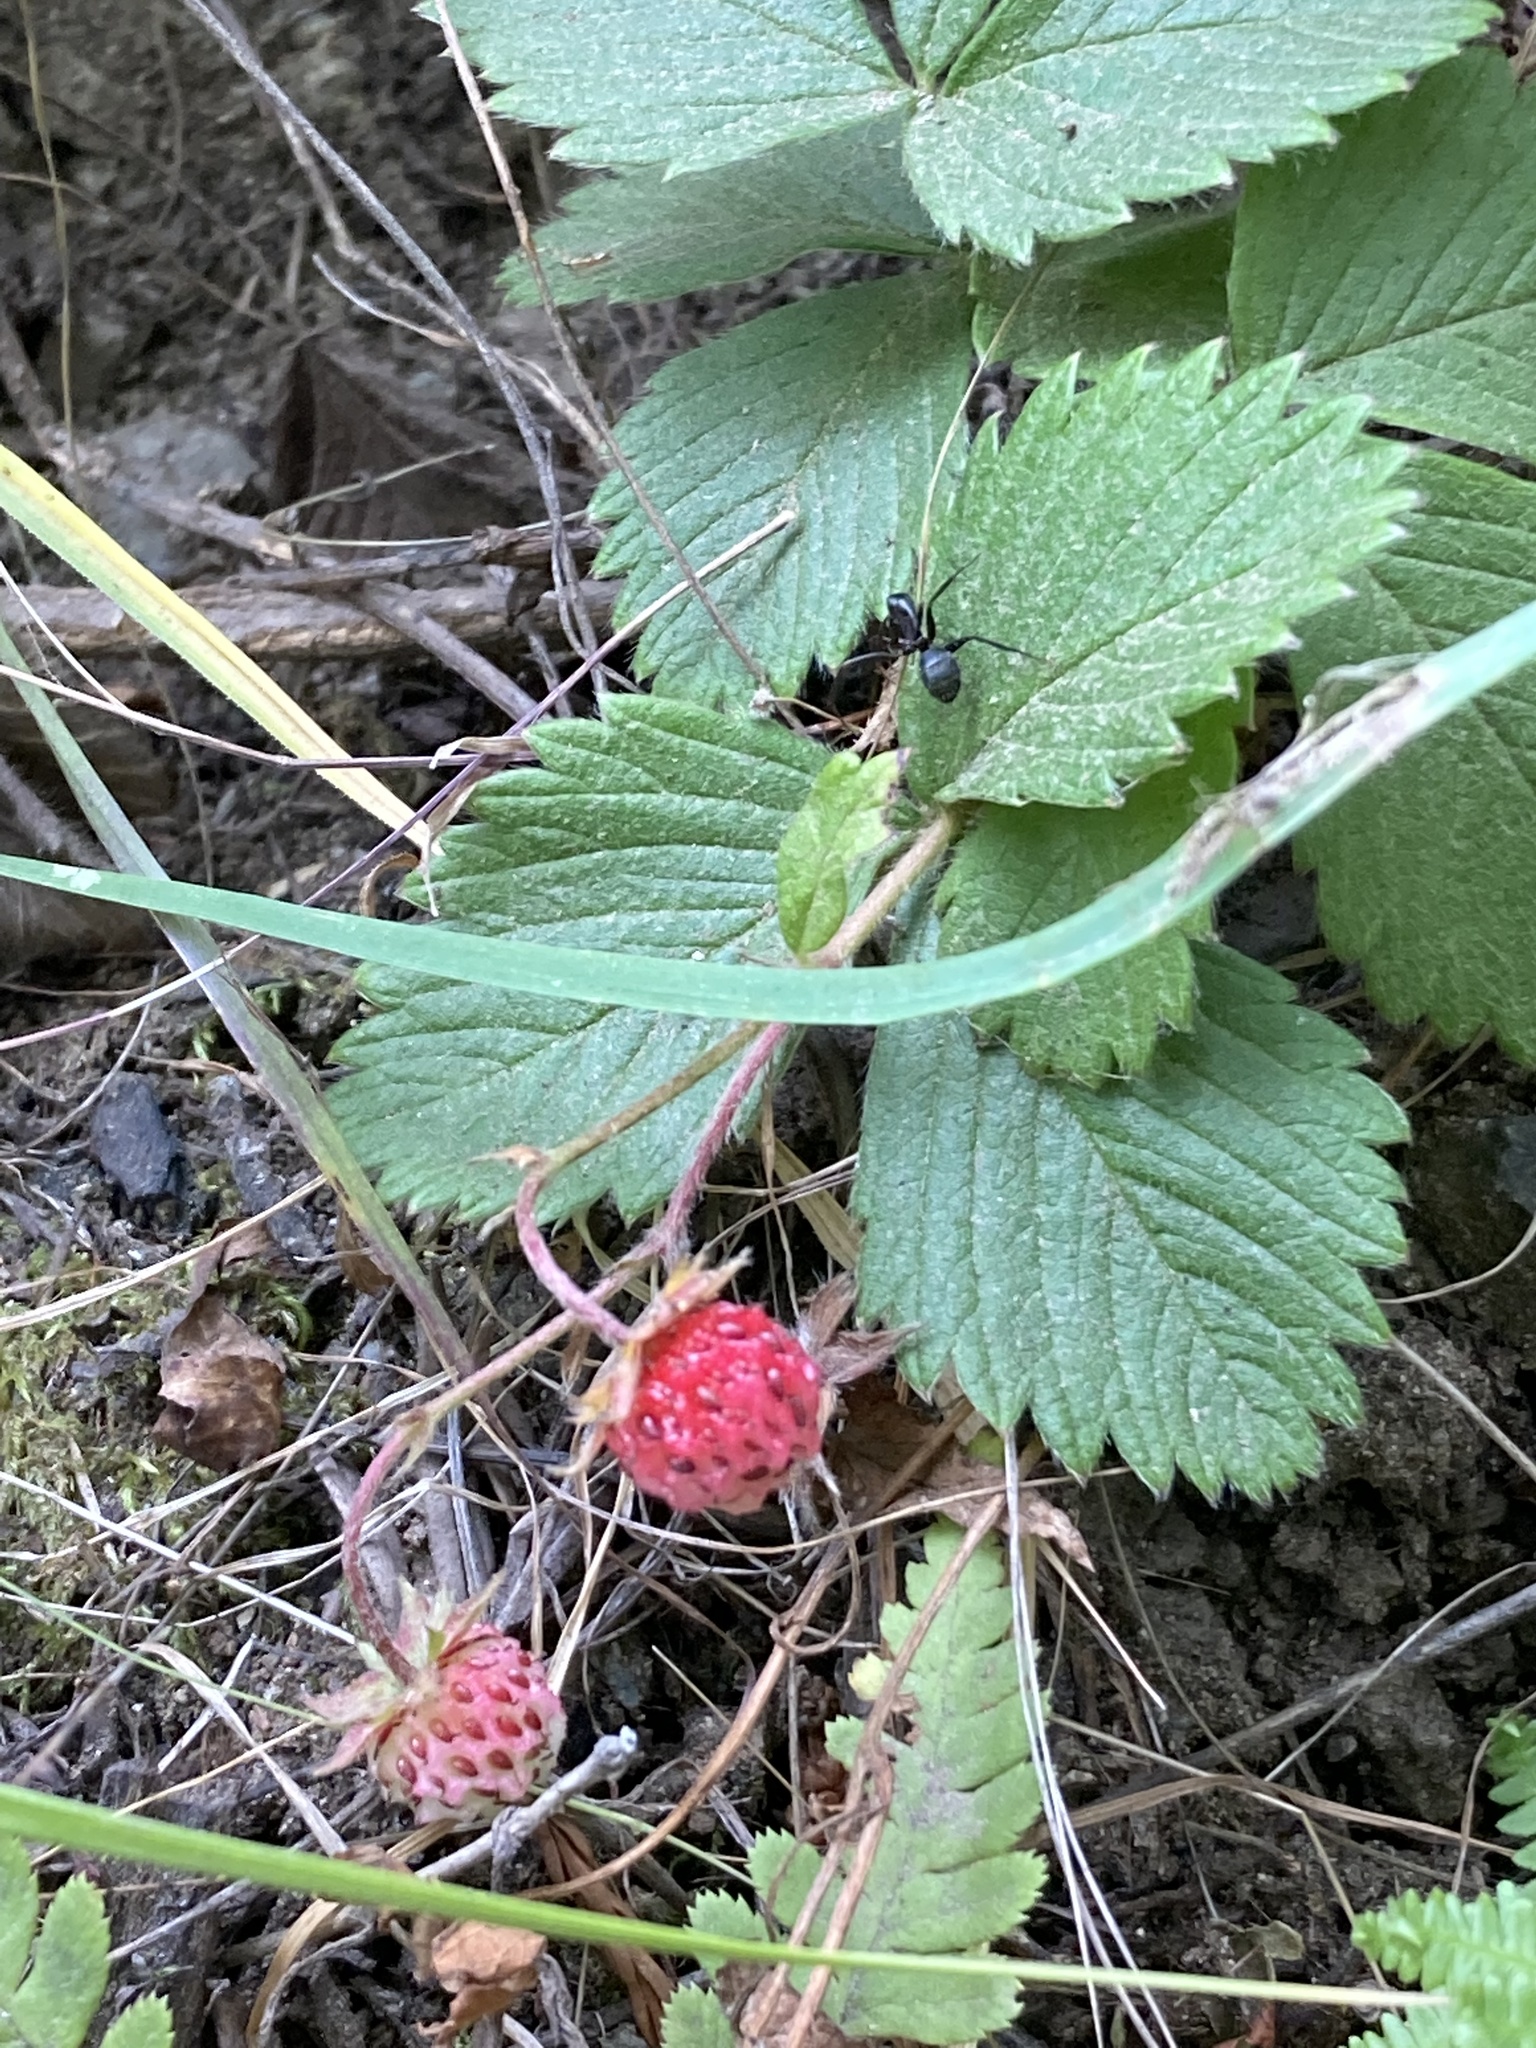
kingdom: Plantae
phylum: Tracheophyta
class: Magnoliopsida
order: Rosales
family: Rosaceae
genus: Fragaria
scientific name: Fragaria vesca
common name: Wild strawberry
